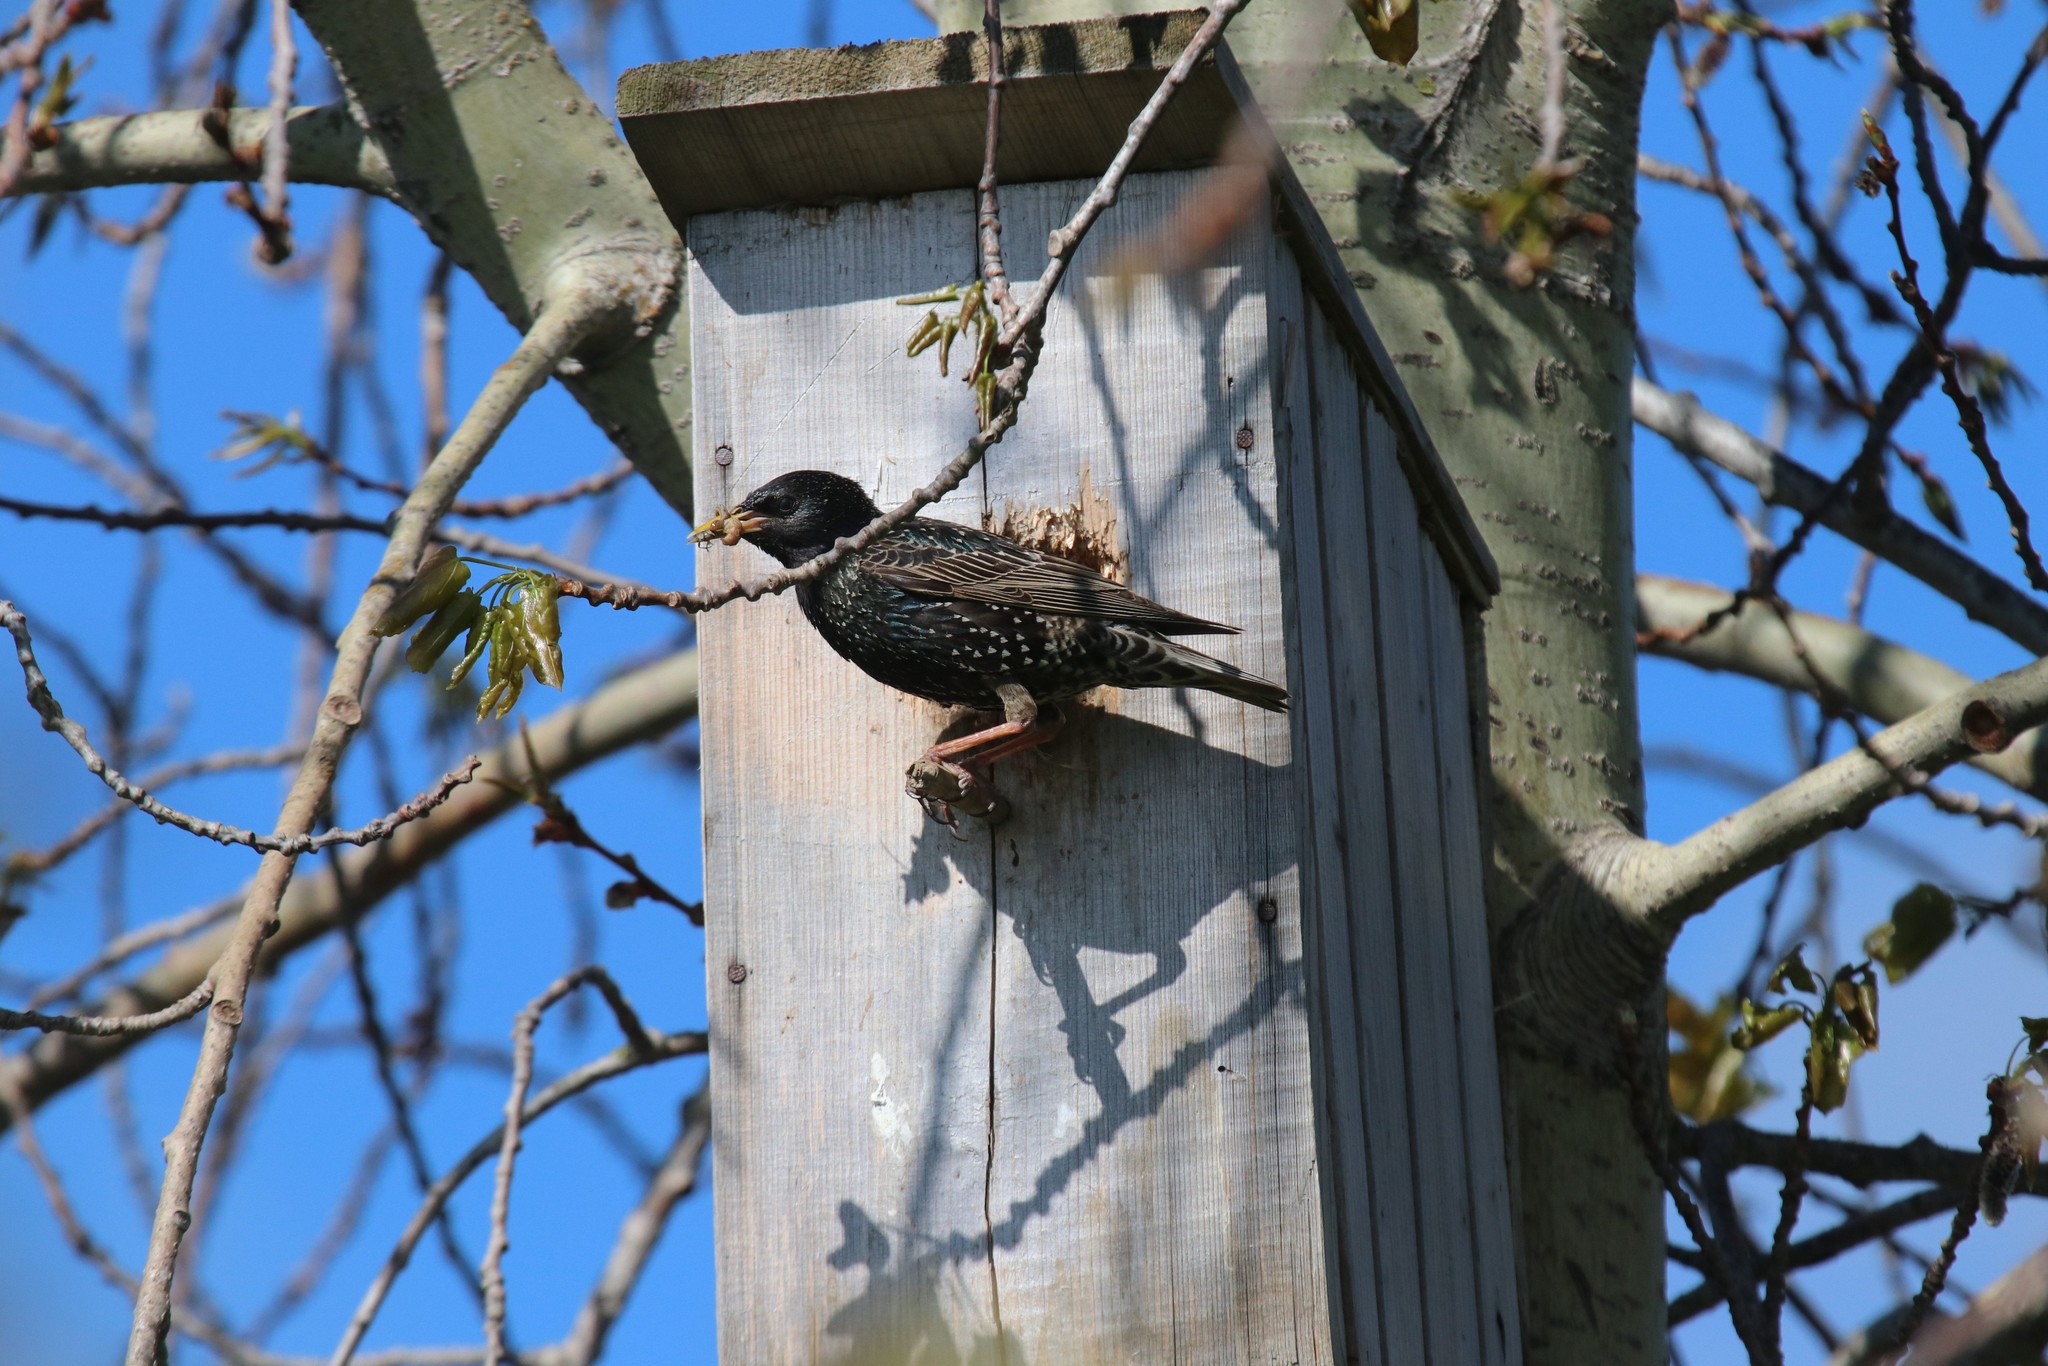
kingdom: Animalia
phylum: Chordata
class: Aves
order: Passeriformes
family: Sturnidae
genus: Sturnus
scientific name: Sturnus vulgaris
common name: Common starling
